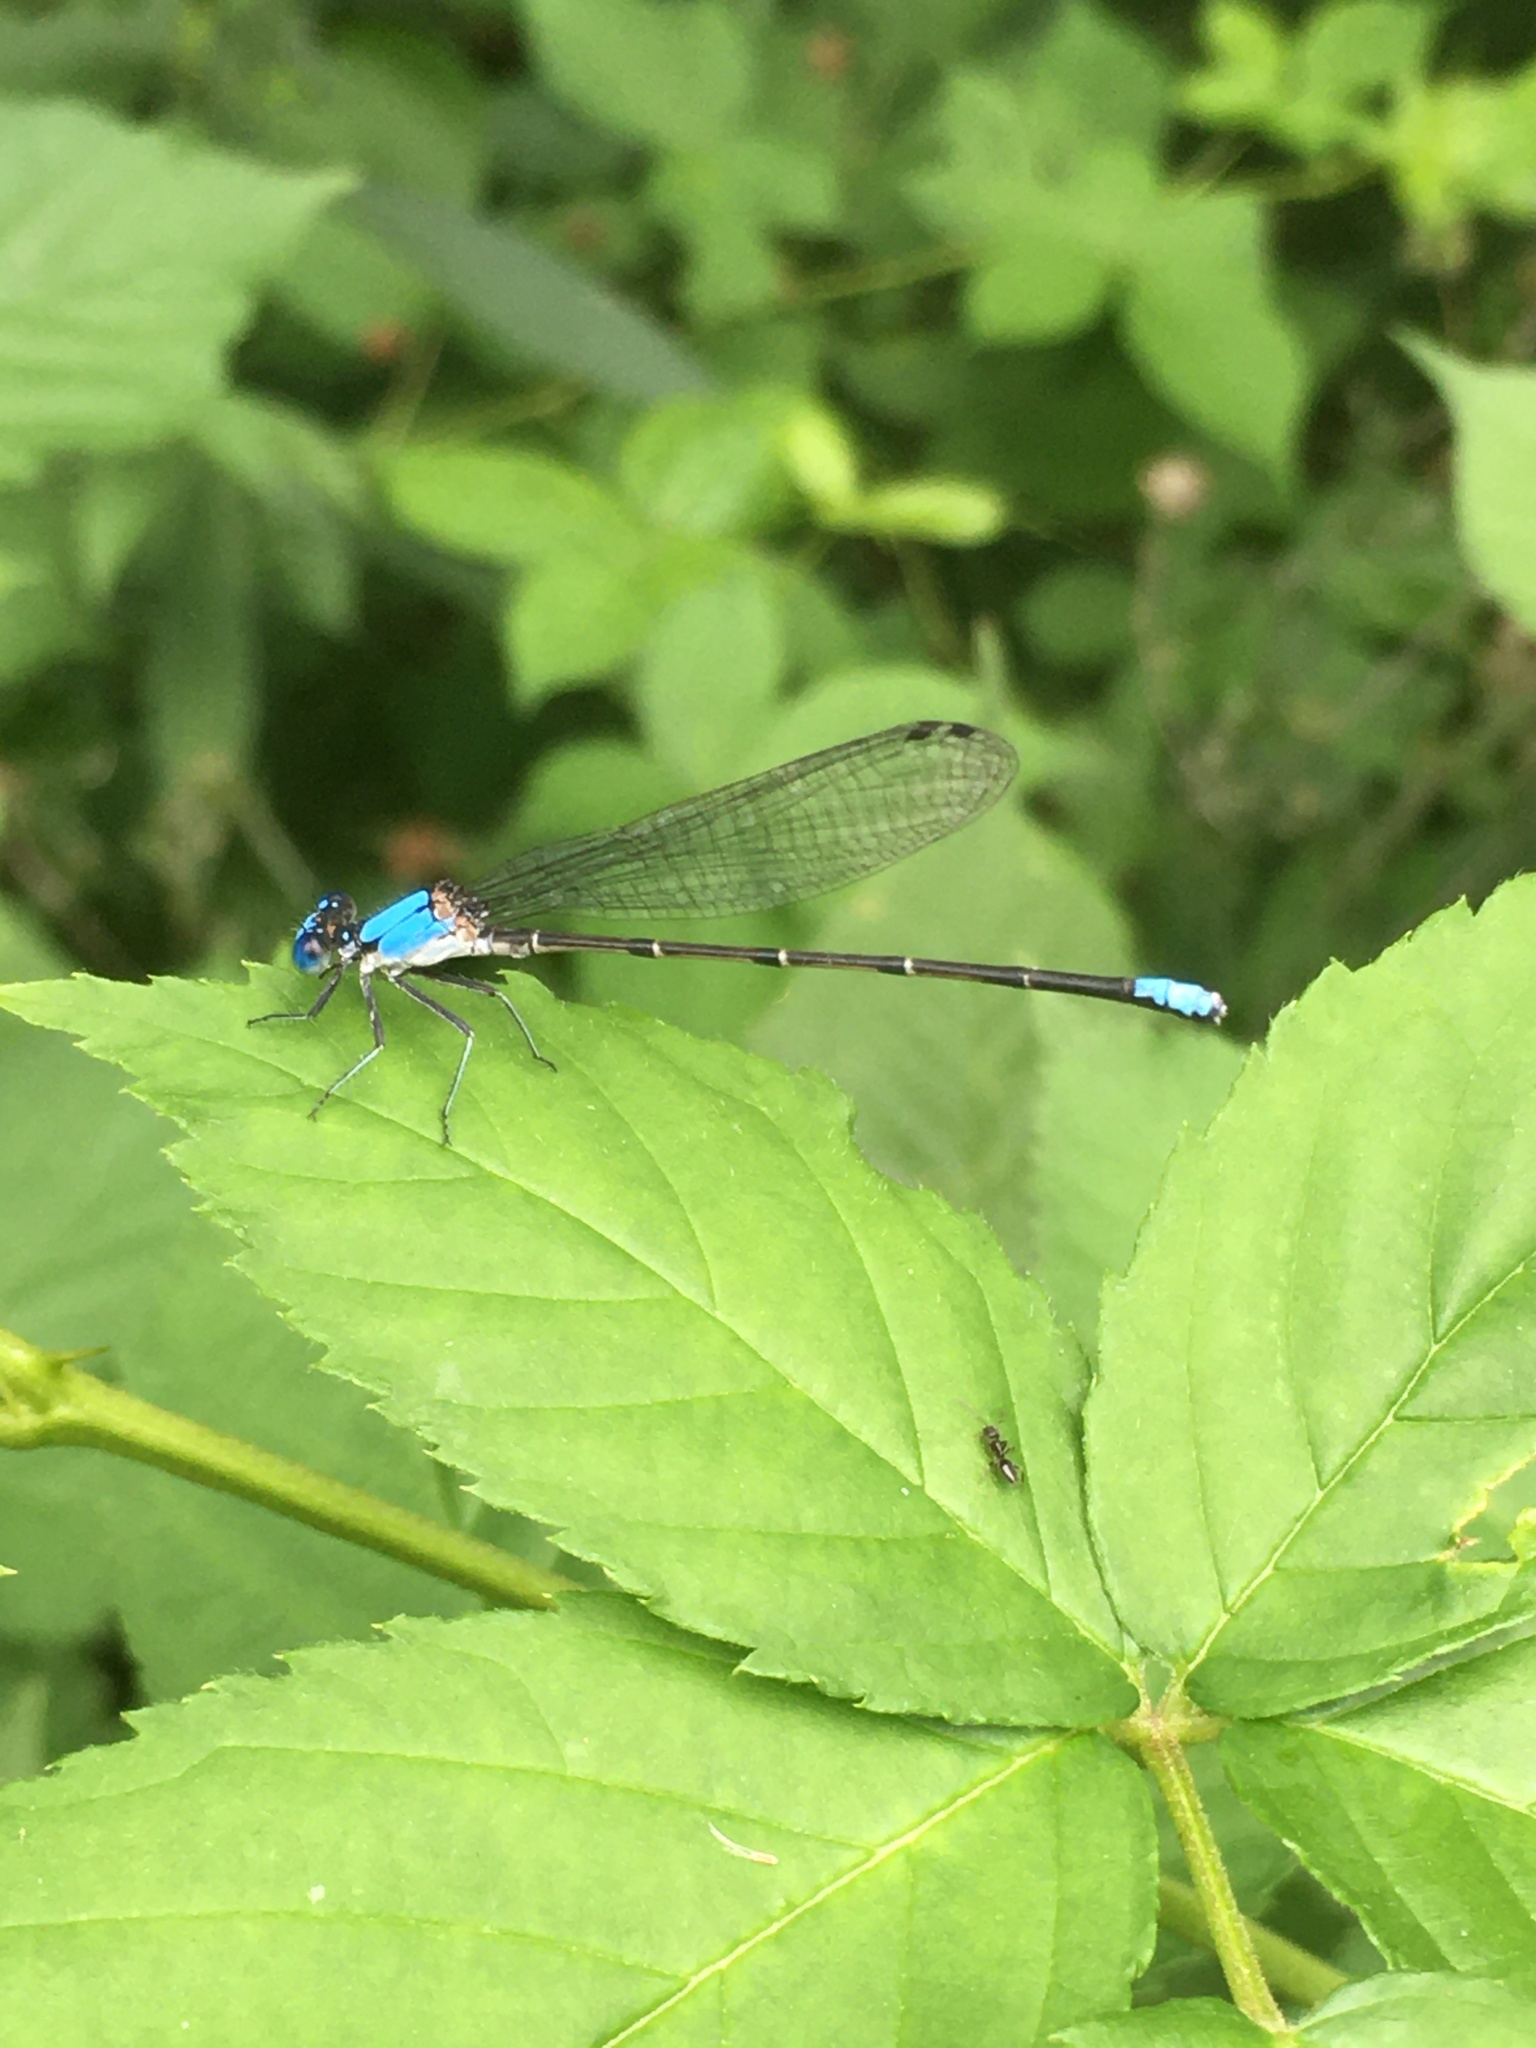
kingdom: Animalia
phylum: Arthropoda
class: Insecta
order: Odonata
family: Coenagrionidae
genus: Argia
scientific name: Argia apicalis
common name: Blue-fronted dancer
